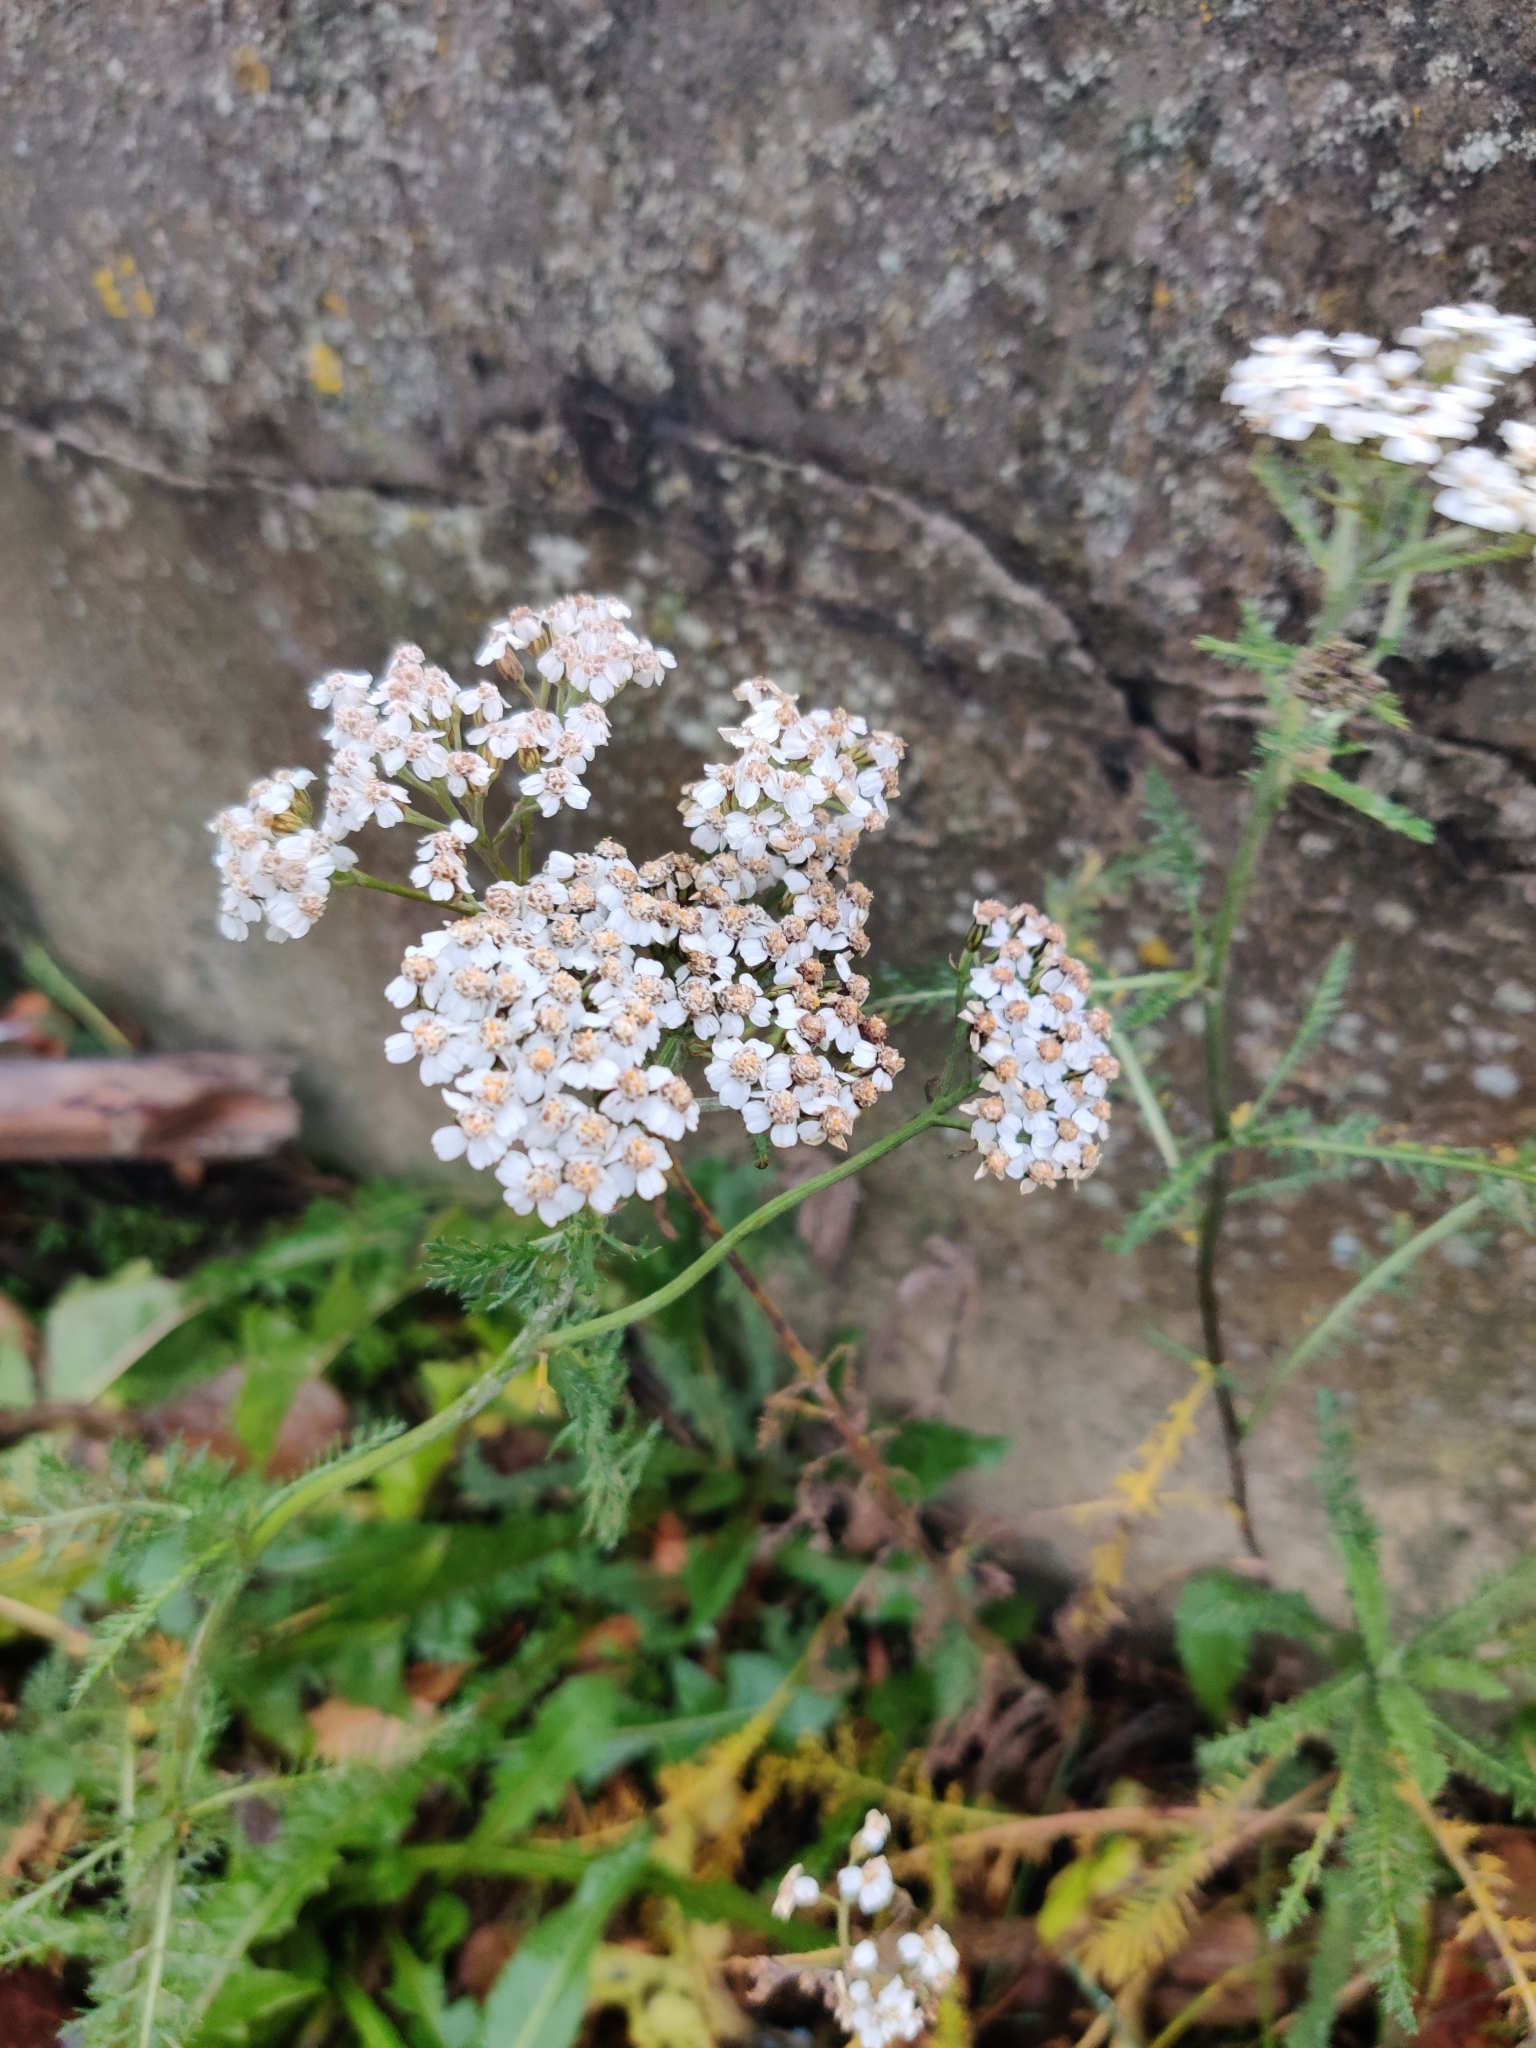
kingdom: Plantae
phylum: Tracheophyta
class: Magnoliopsida
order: Asterales
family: Asteraceae
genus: Achillea
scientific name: Achillea millefolium
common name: Yarrow
